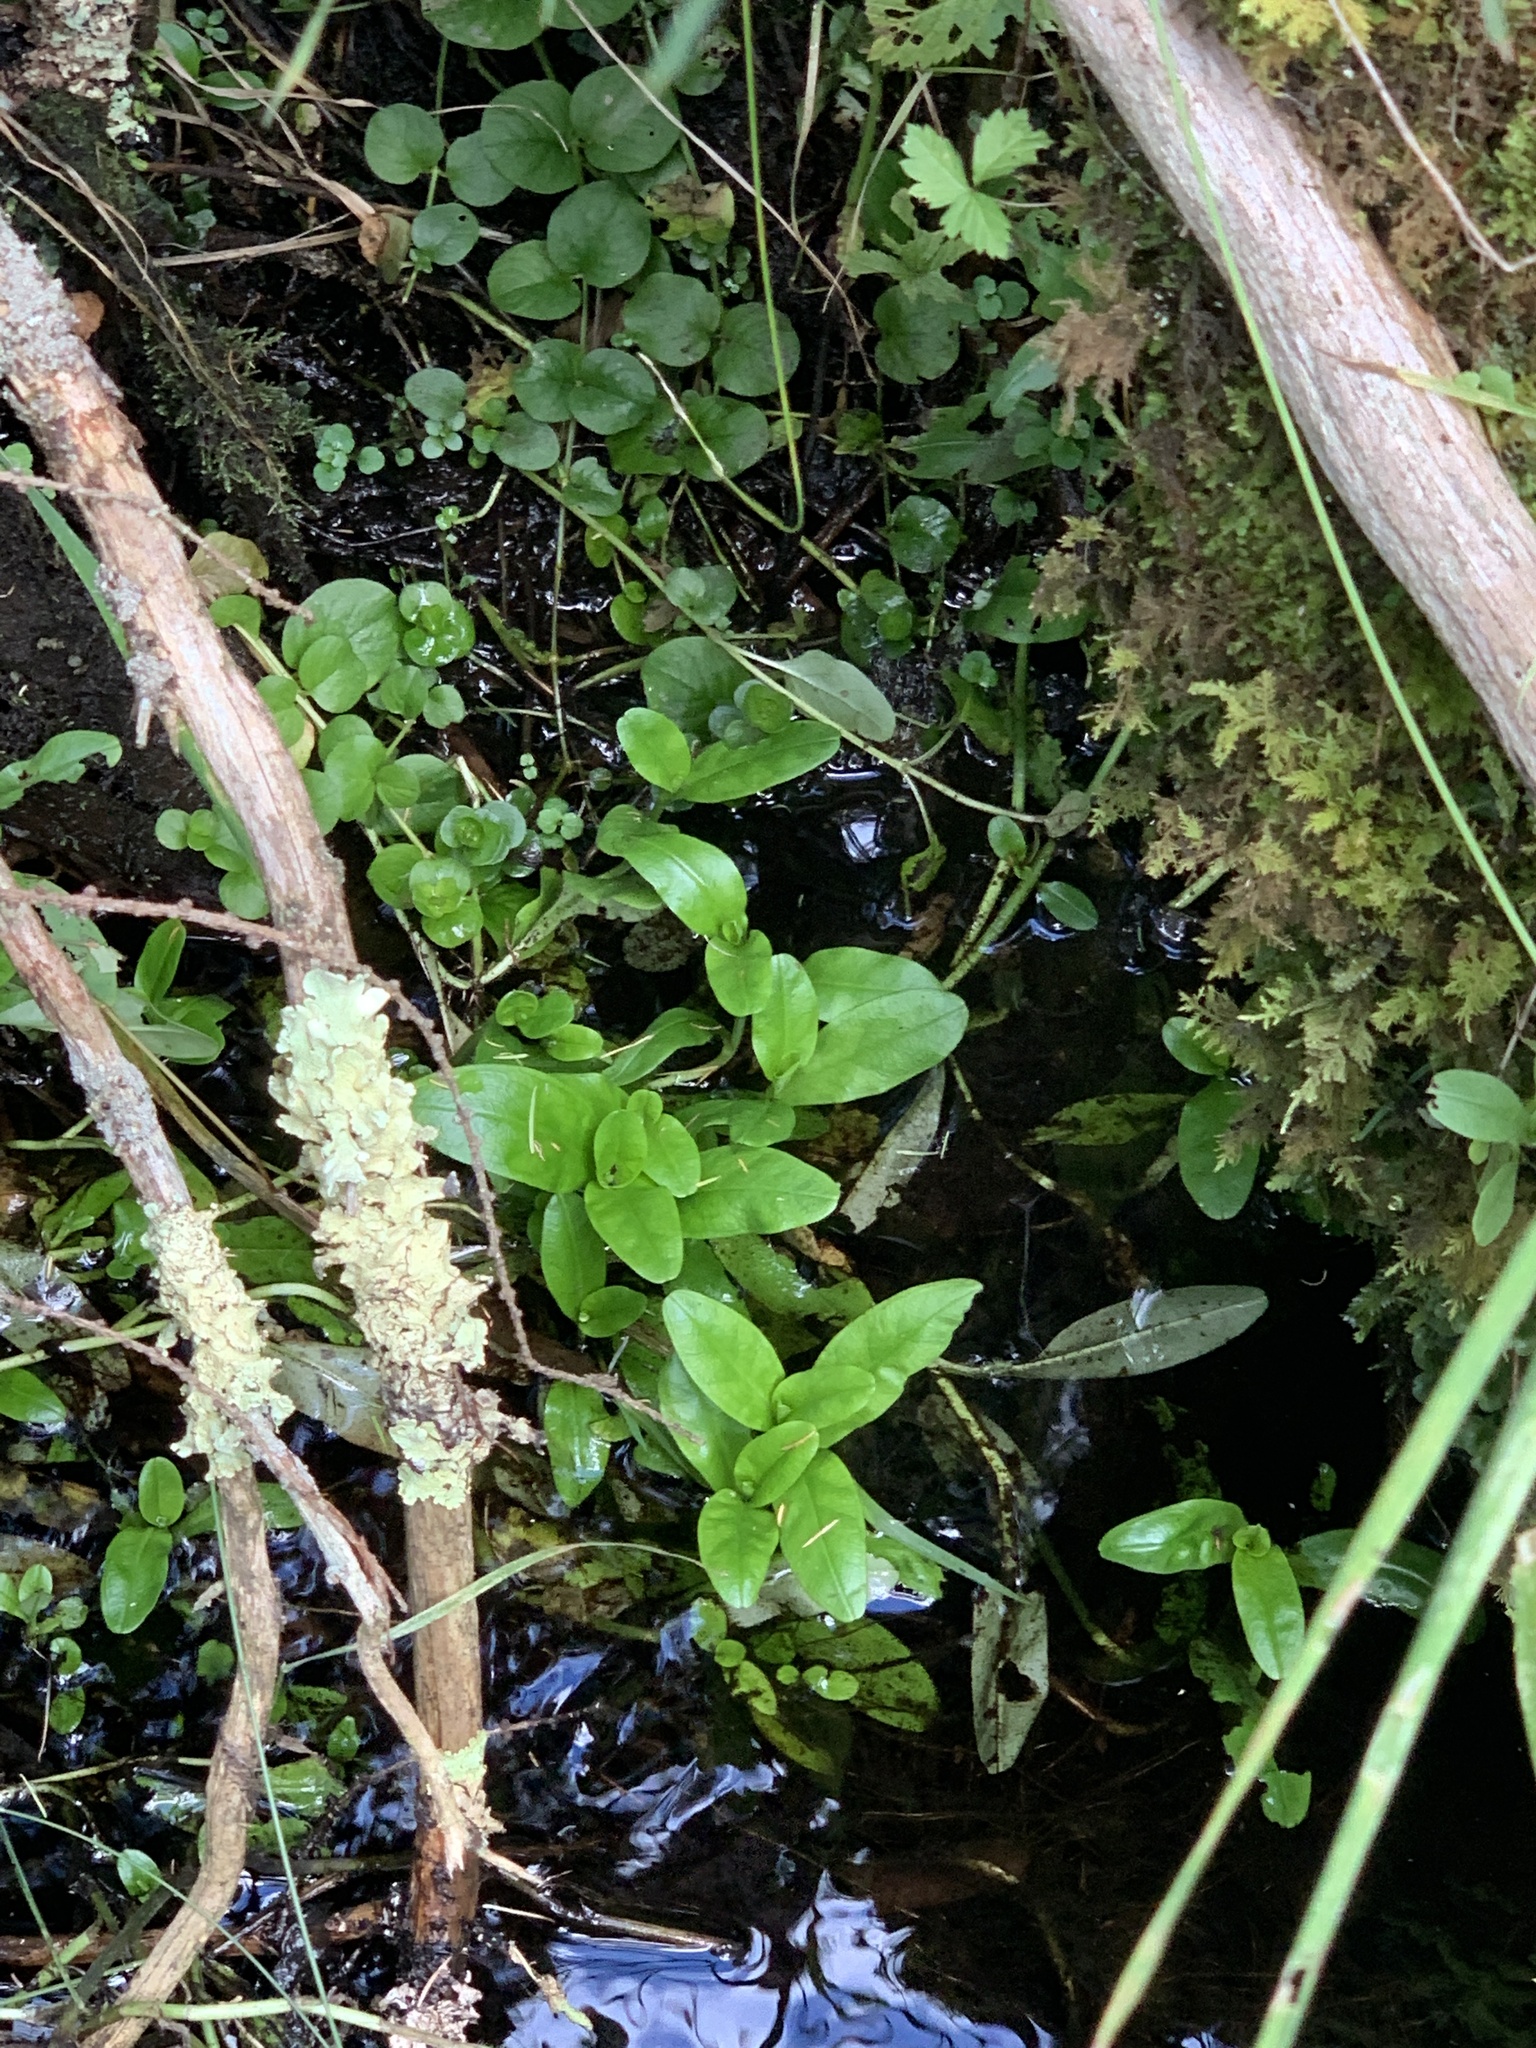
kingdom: Plantae
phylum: Tracheophyta
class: Magnoliopsida
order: Boraginales
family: Boraginaceae
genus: Myosotis
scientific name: Myosotis scorpioides
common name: Water forget-me-not
